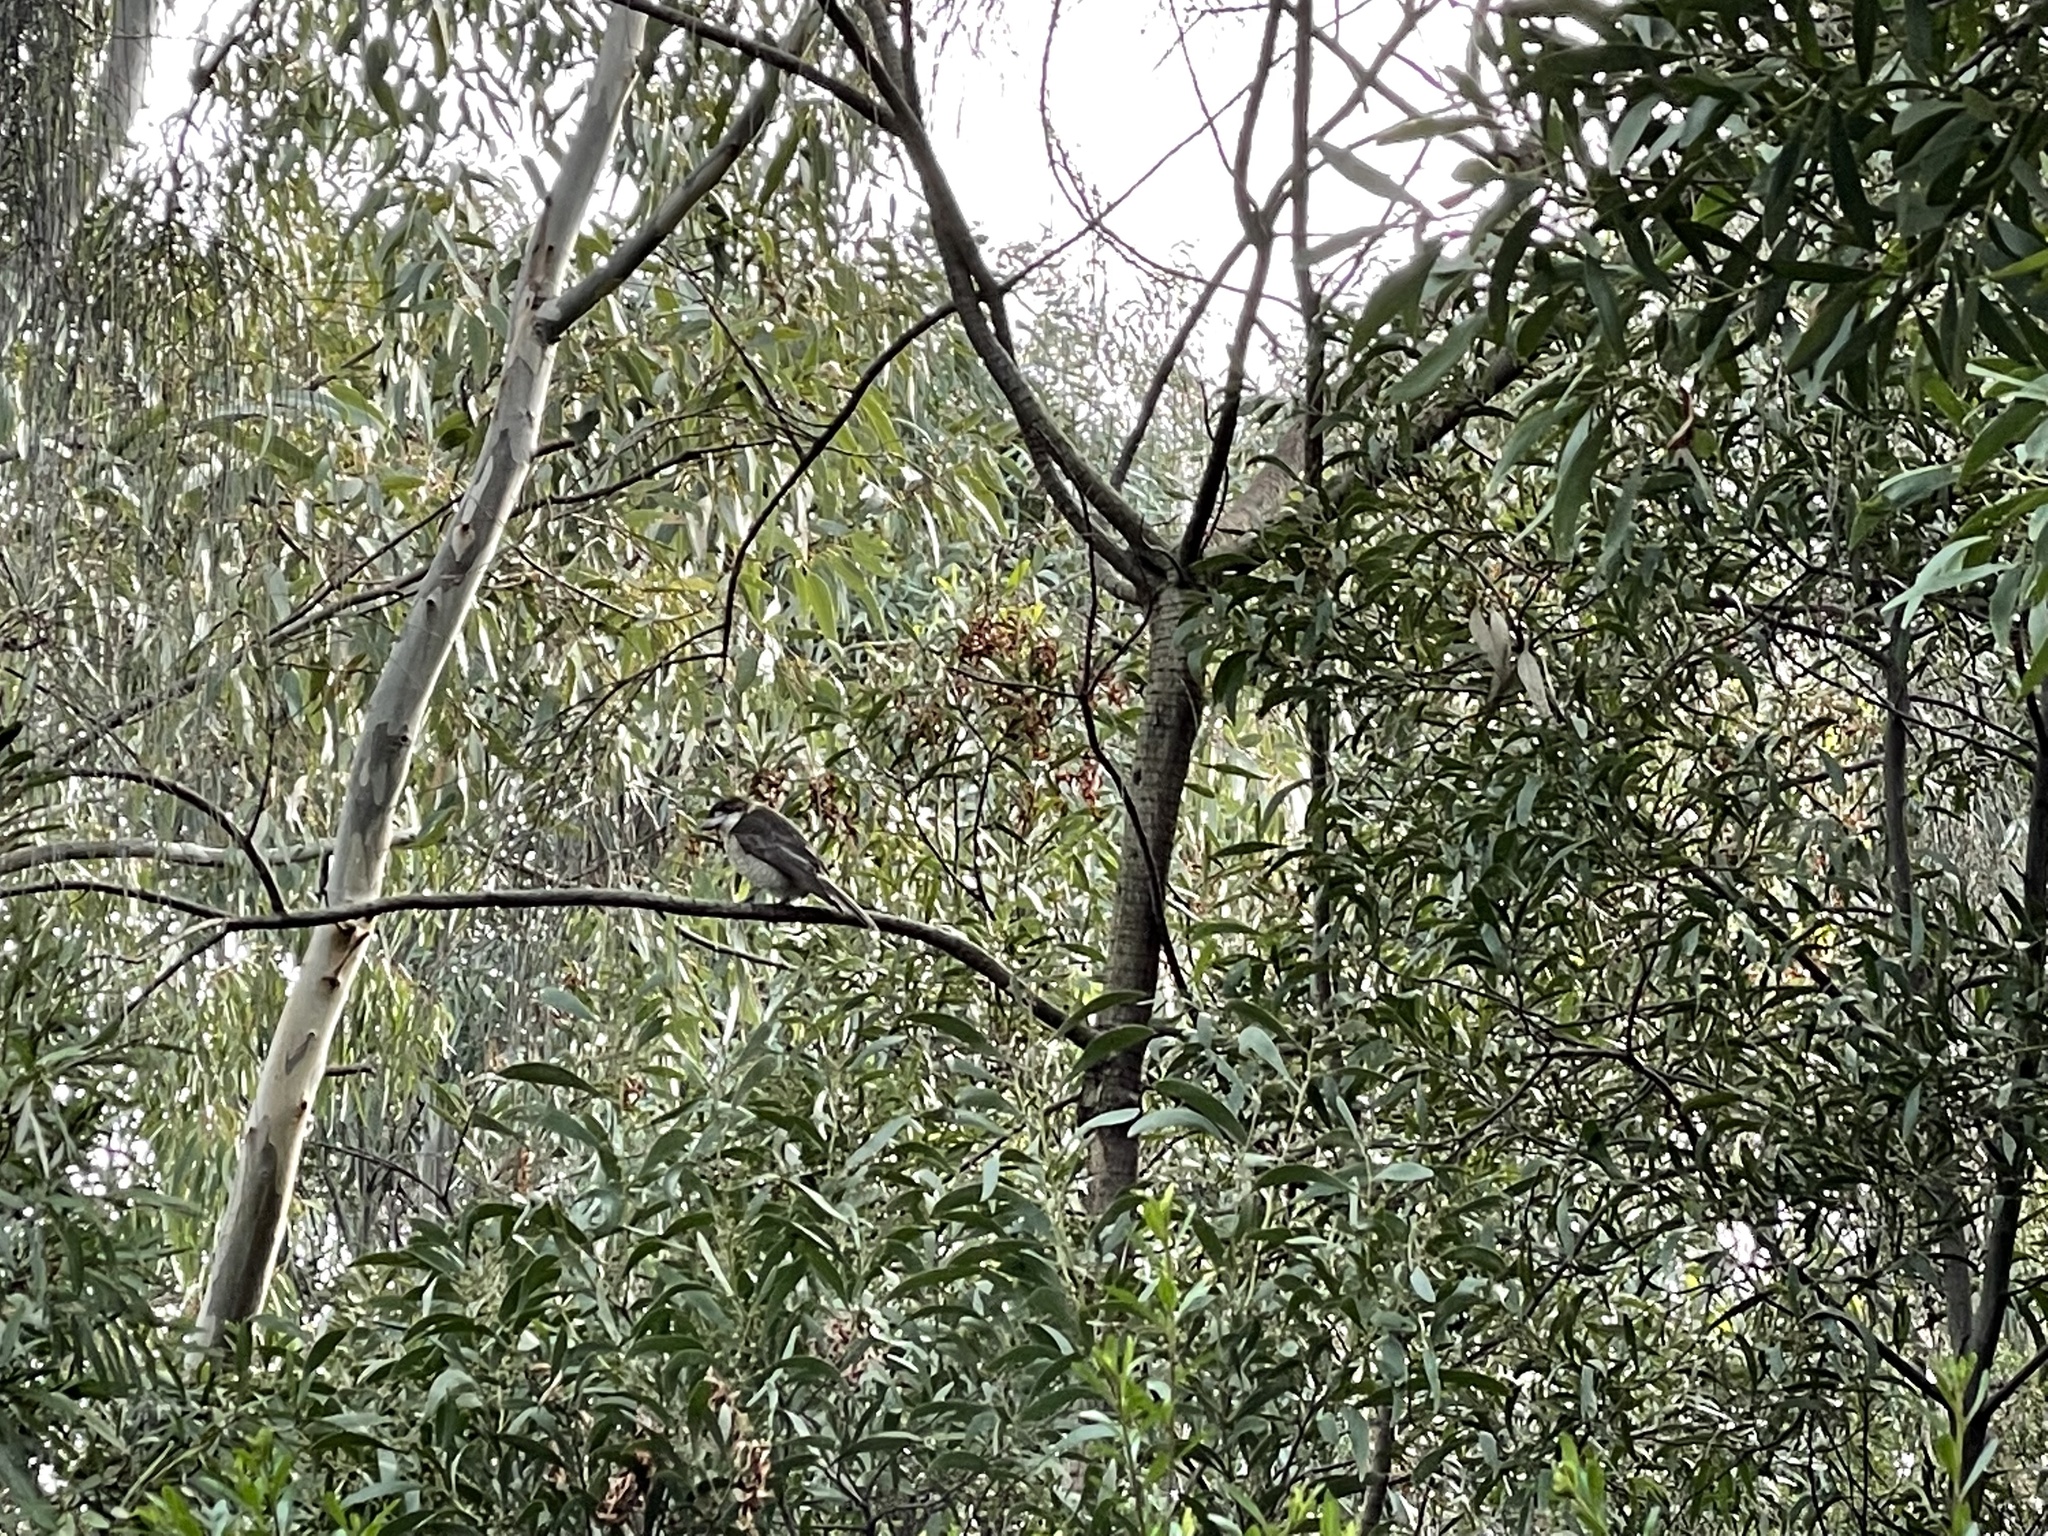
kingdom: Animalia
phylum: Chordata
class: Aves
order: Passeriformes
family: Cracticidae
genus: Cracticus
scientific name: Cracticus torquatus
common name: Grey butcherbird
